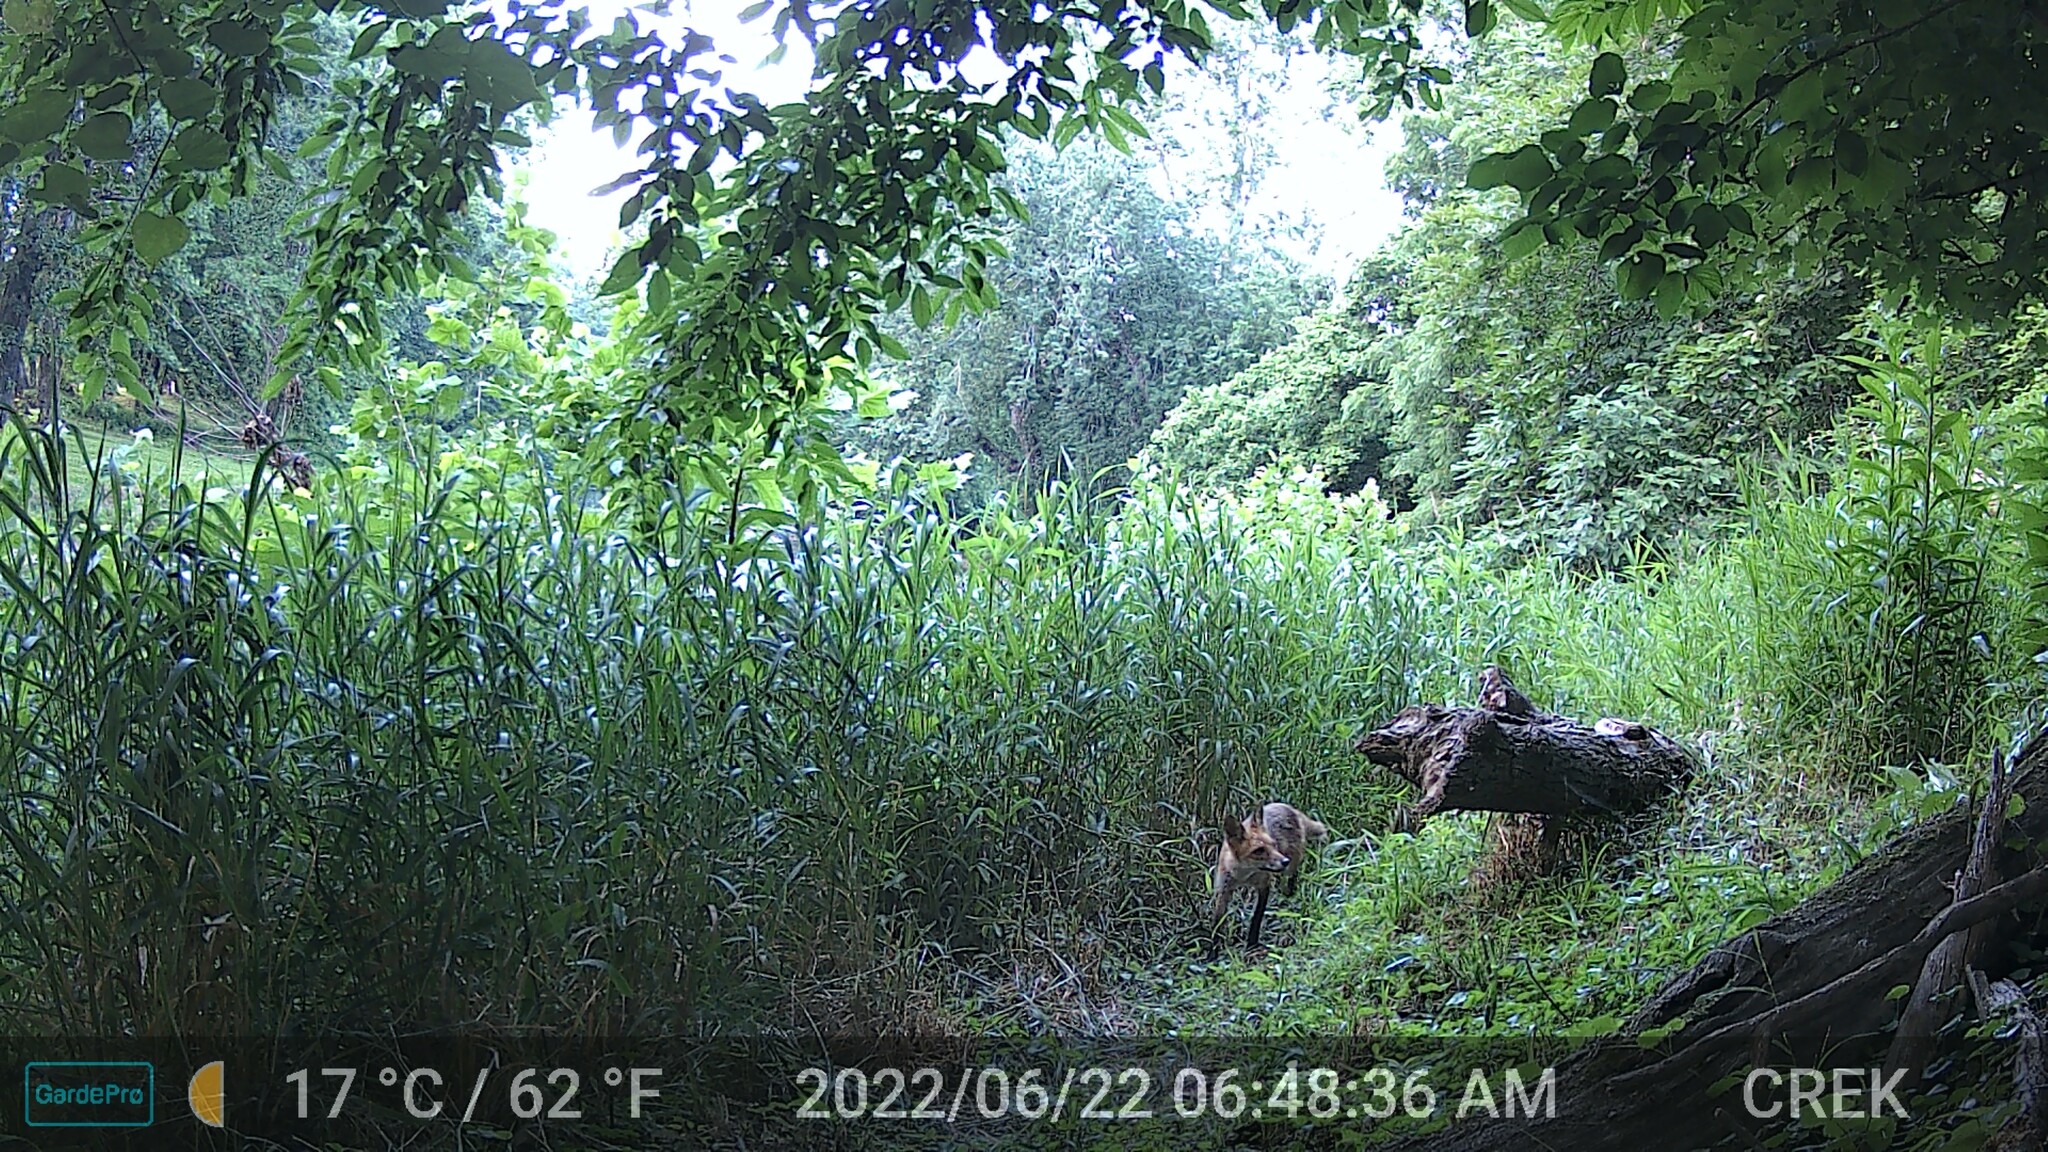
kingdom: Animalia
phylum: Chordata
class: Mammalia
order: Carnivora
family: Canidae
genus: Vulpes
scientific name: Vulpes vulpes
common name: Red fox
